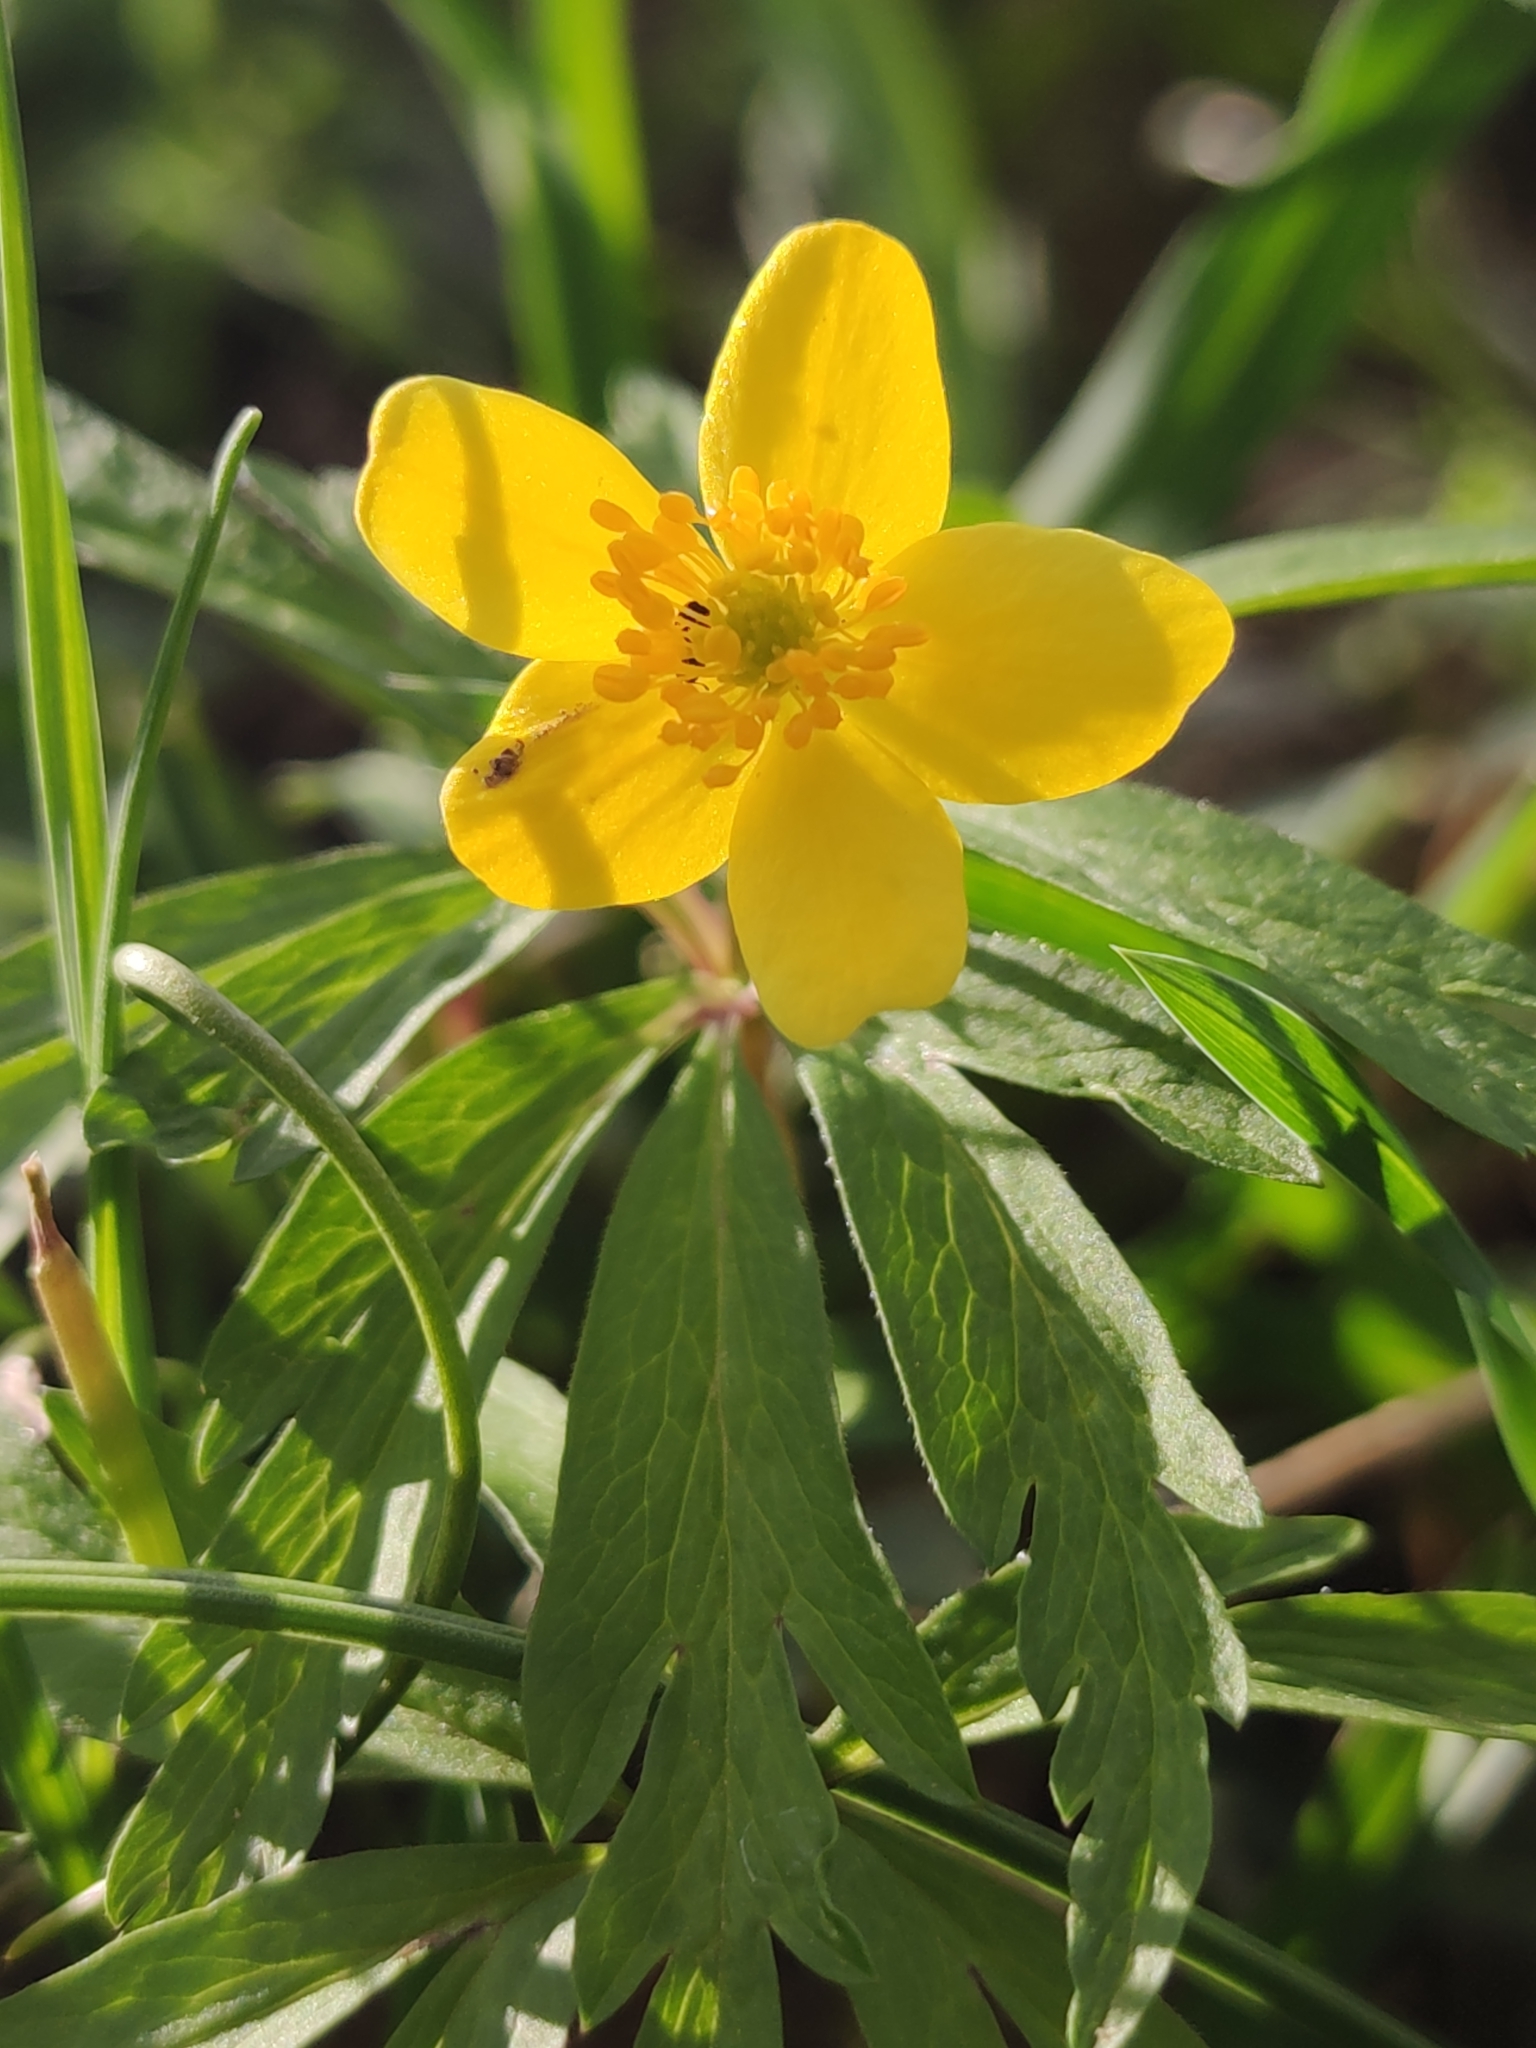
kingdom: Plantae
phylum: Tracheophyta
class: Magnoliopsida
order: Ranunculales
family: Ranunculaceae
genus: Anemone
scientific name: Anemone ranunculoides
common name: Yellow anemone
